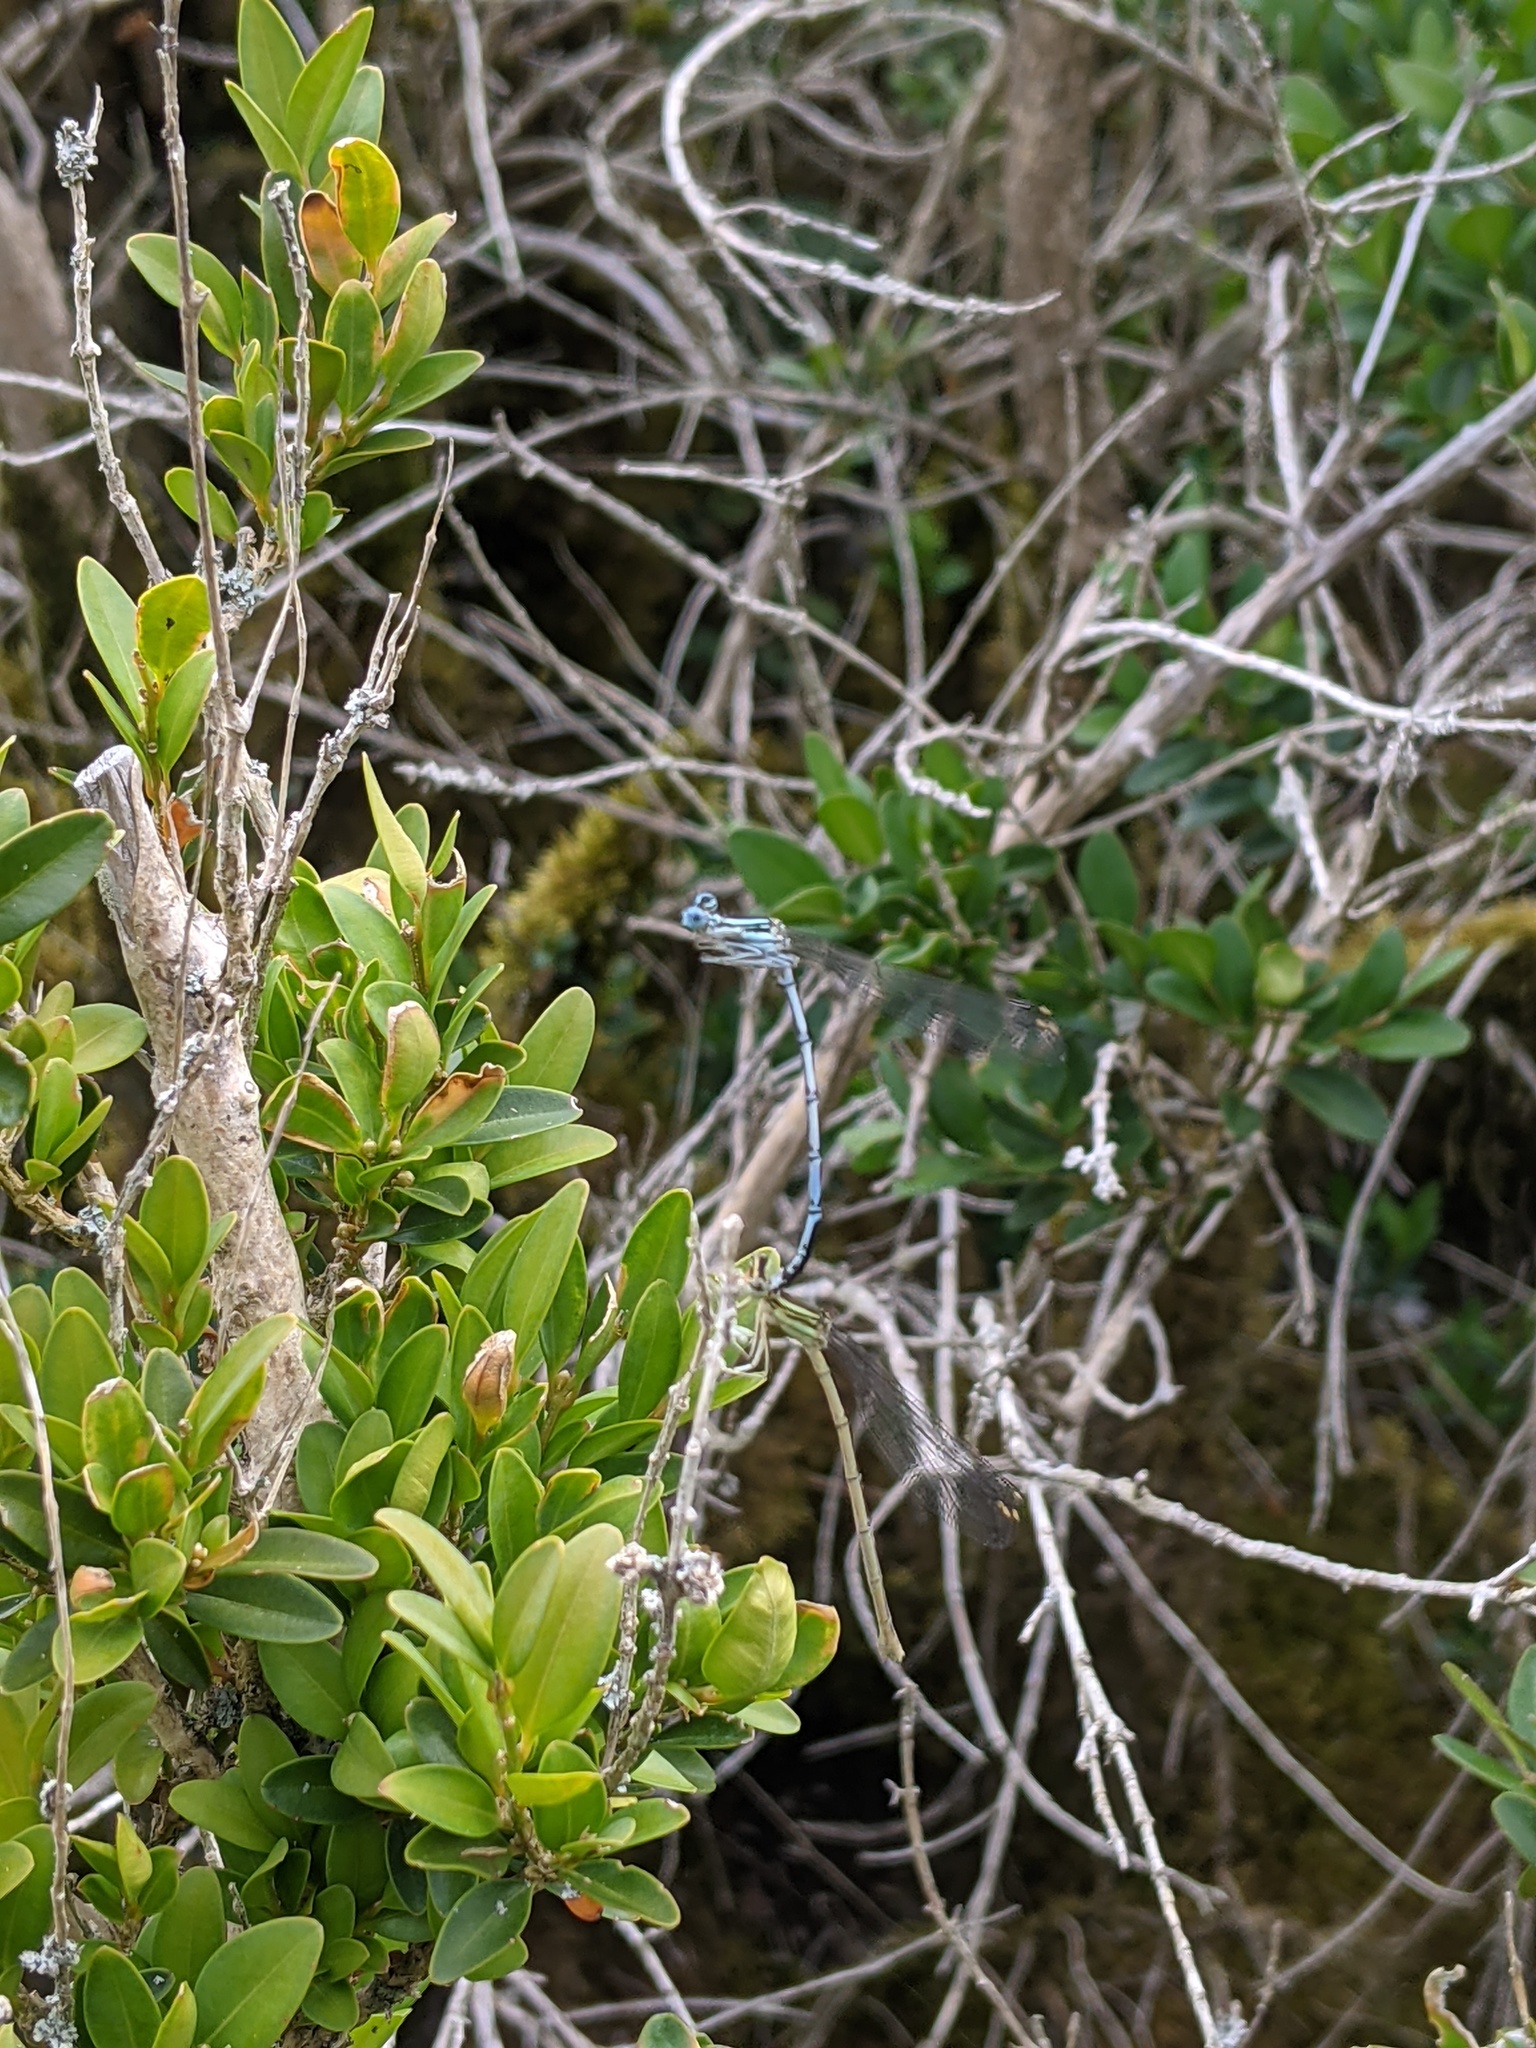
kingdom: Animalia
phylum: Arthropoda
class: Insecta
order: Odonata
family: Platycnemididae
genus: Platycnemis
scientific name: Platycnemis pennipes
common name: White-legged damselfly
